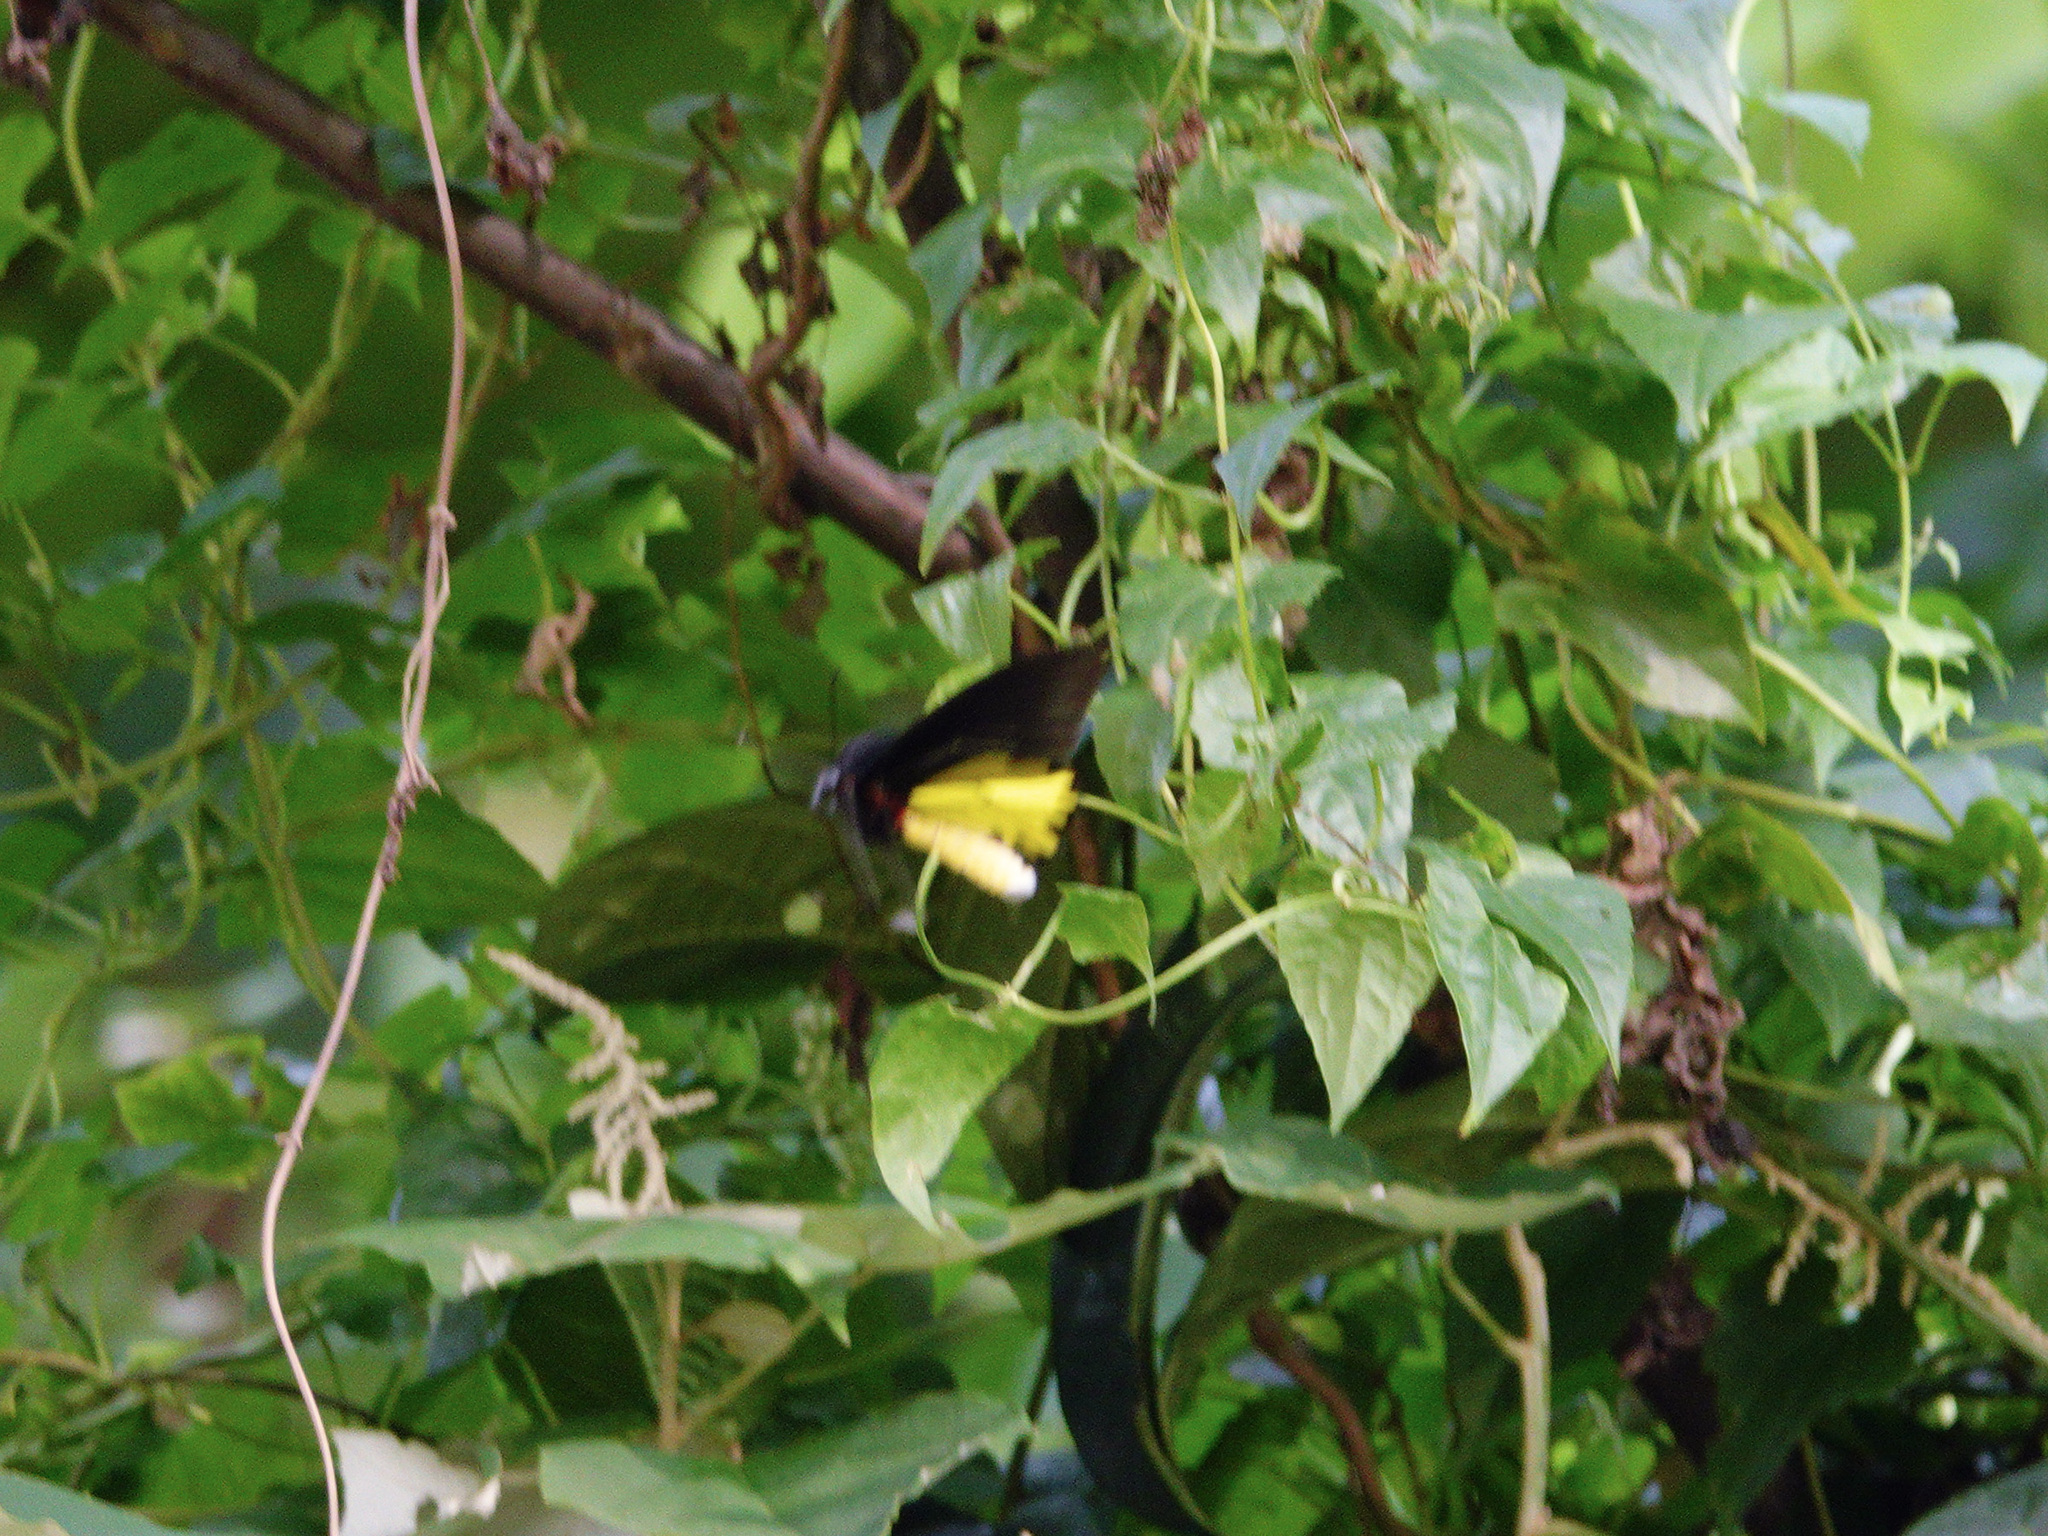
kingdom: Animalia
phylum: Arthropoda
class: Insecta
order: Lepidoptera
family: Papilionidae
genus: Troides
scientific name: Troides helena
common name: Common birdwing
